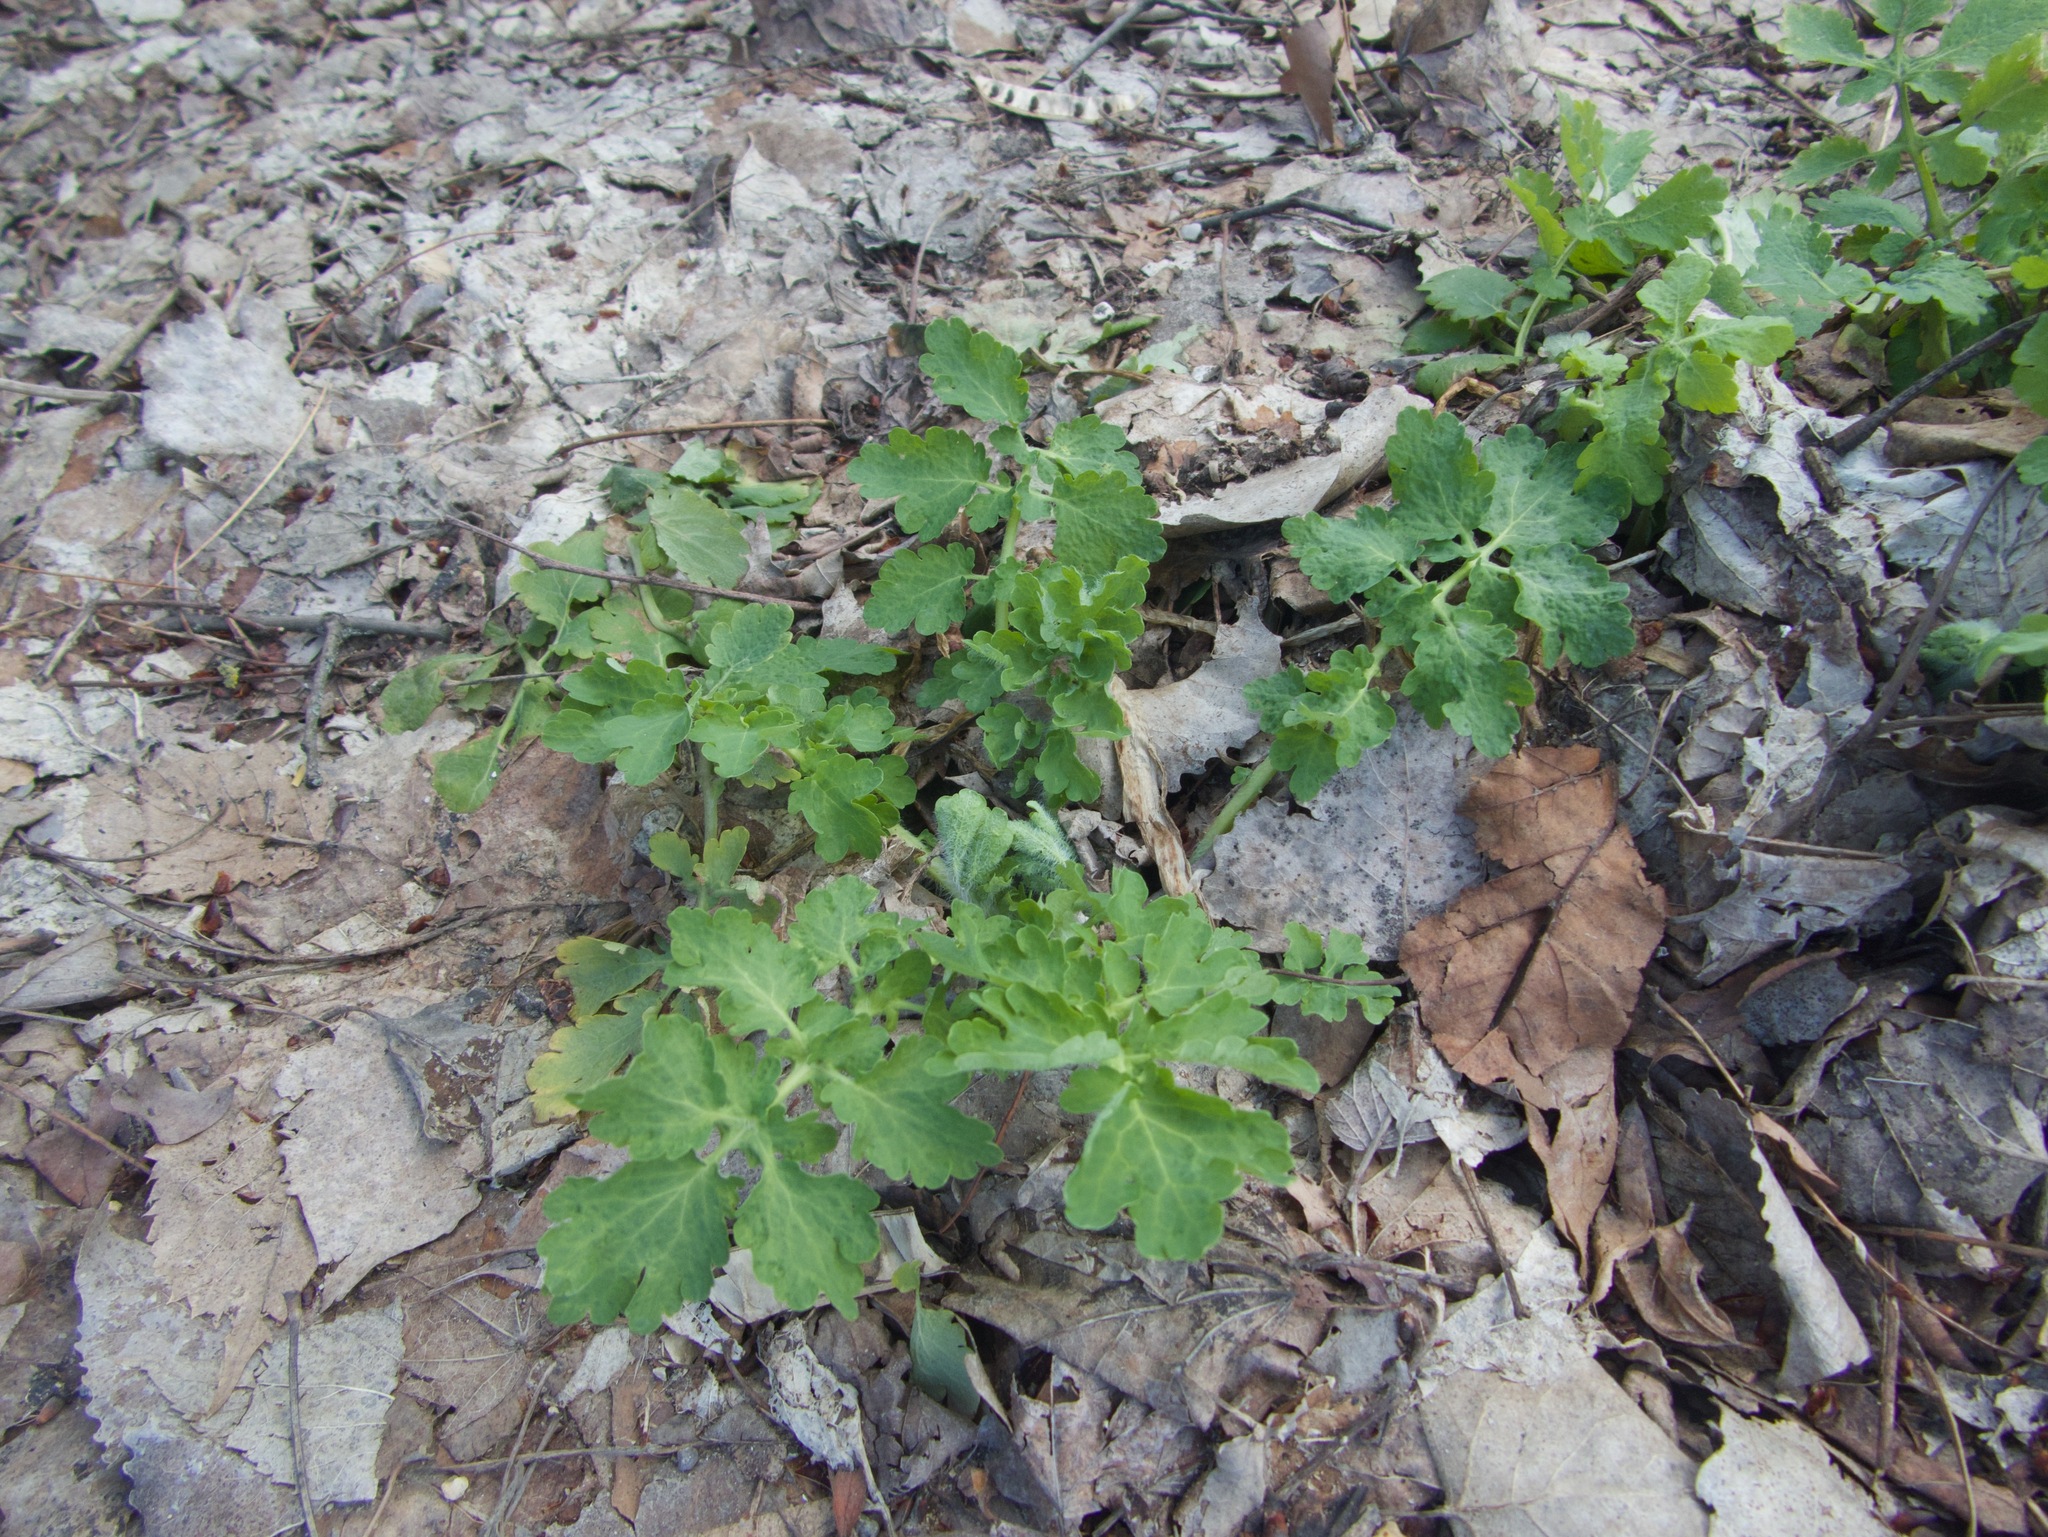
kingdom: Plantae
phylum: Tracheophyta
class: Magnoliopsida
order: Ranunculales
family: Papaveraceae
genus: Chelidonium
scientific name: Chelidonium majus
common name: Greater celandine
